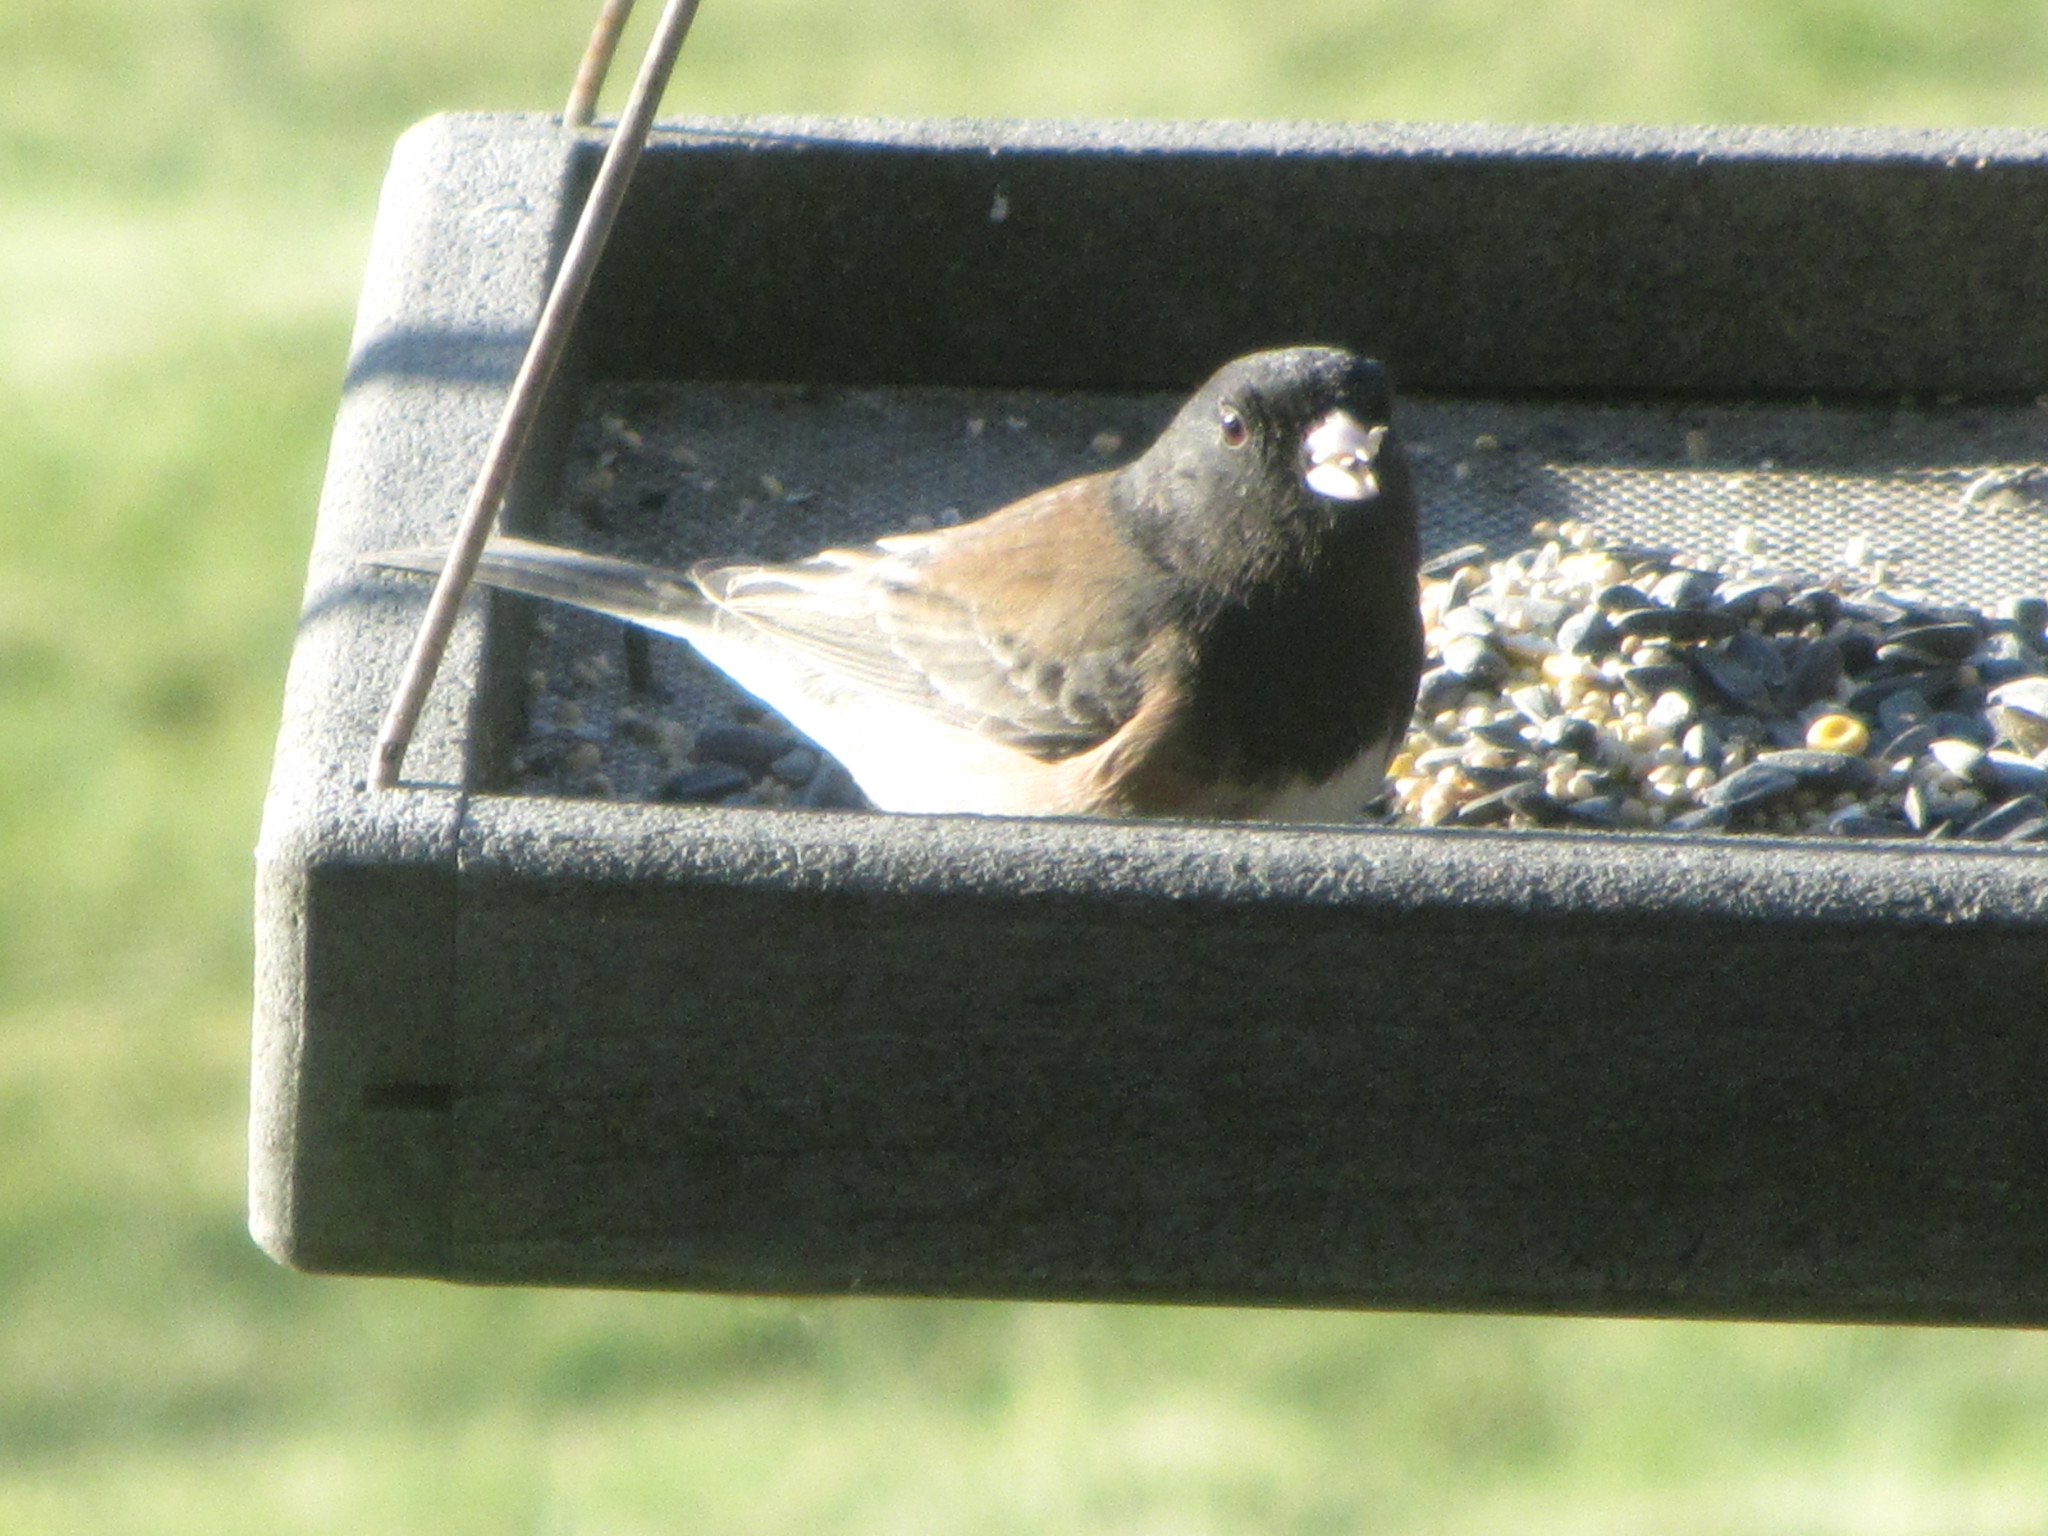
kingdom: Animalia
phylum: Chordata
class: Aves
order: Passeriformes
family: Passerellidae
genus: Junco
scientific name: Junco hyemalis
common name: Dark-eyed junco
